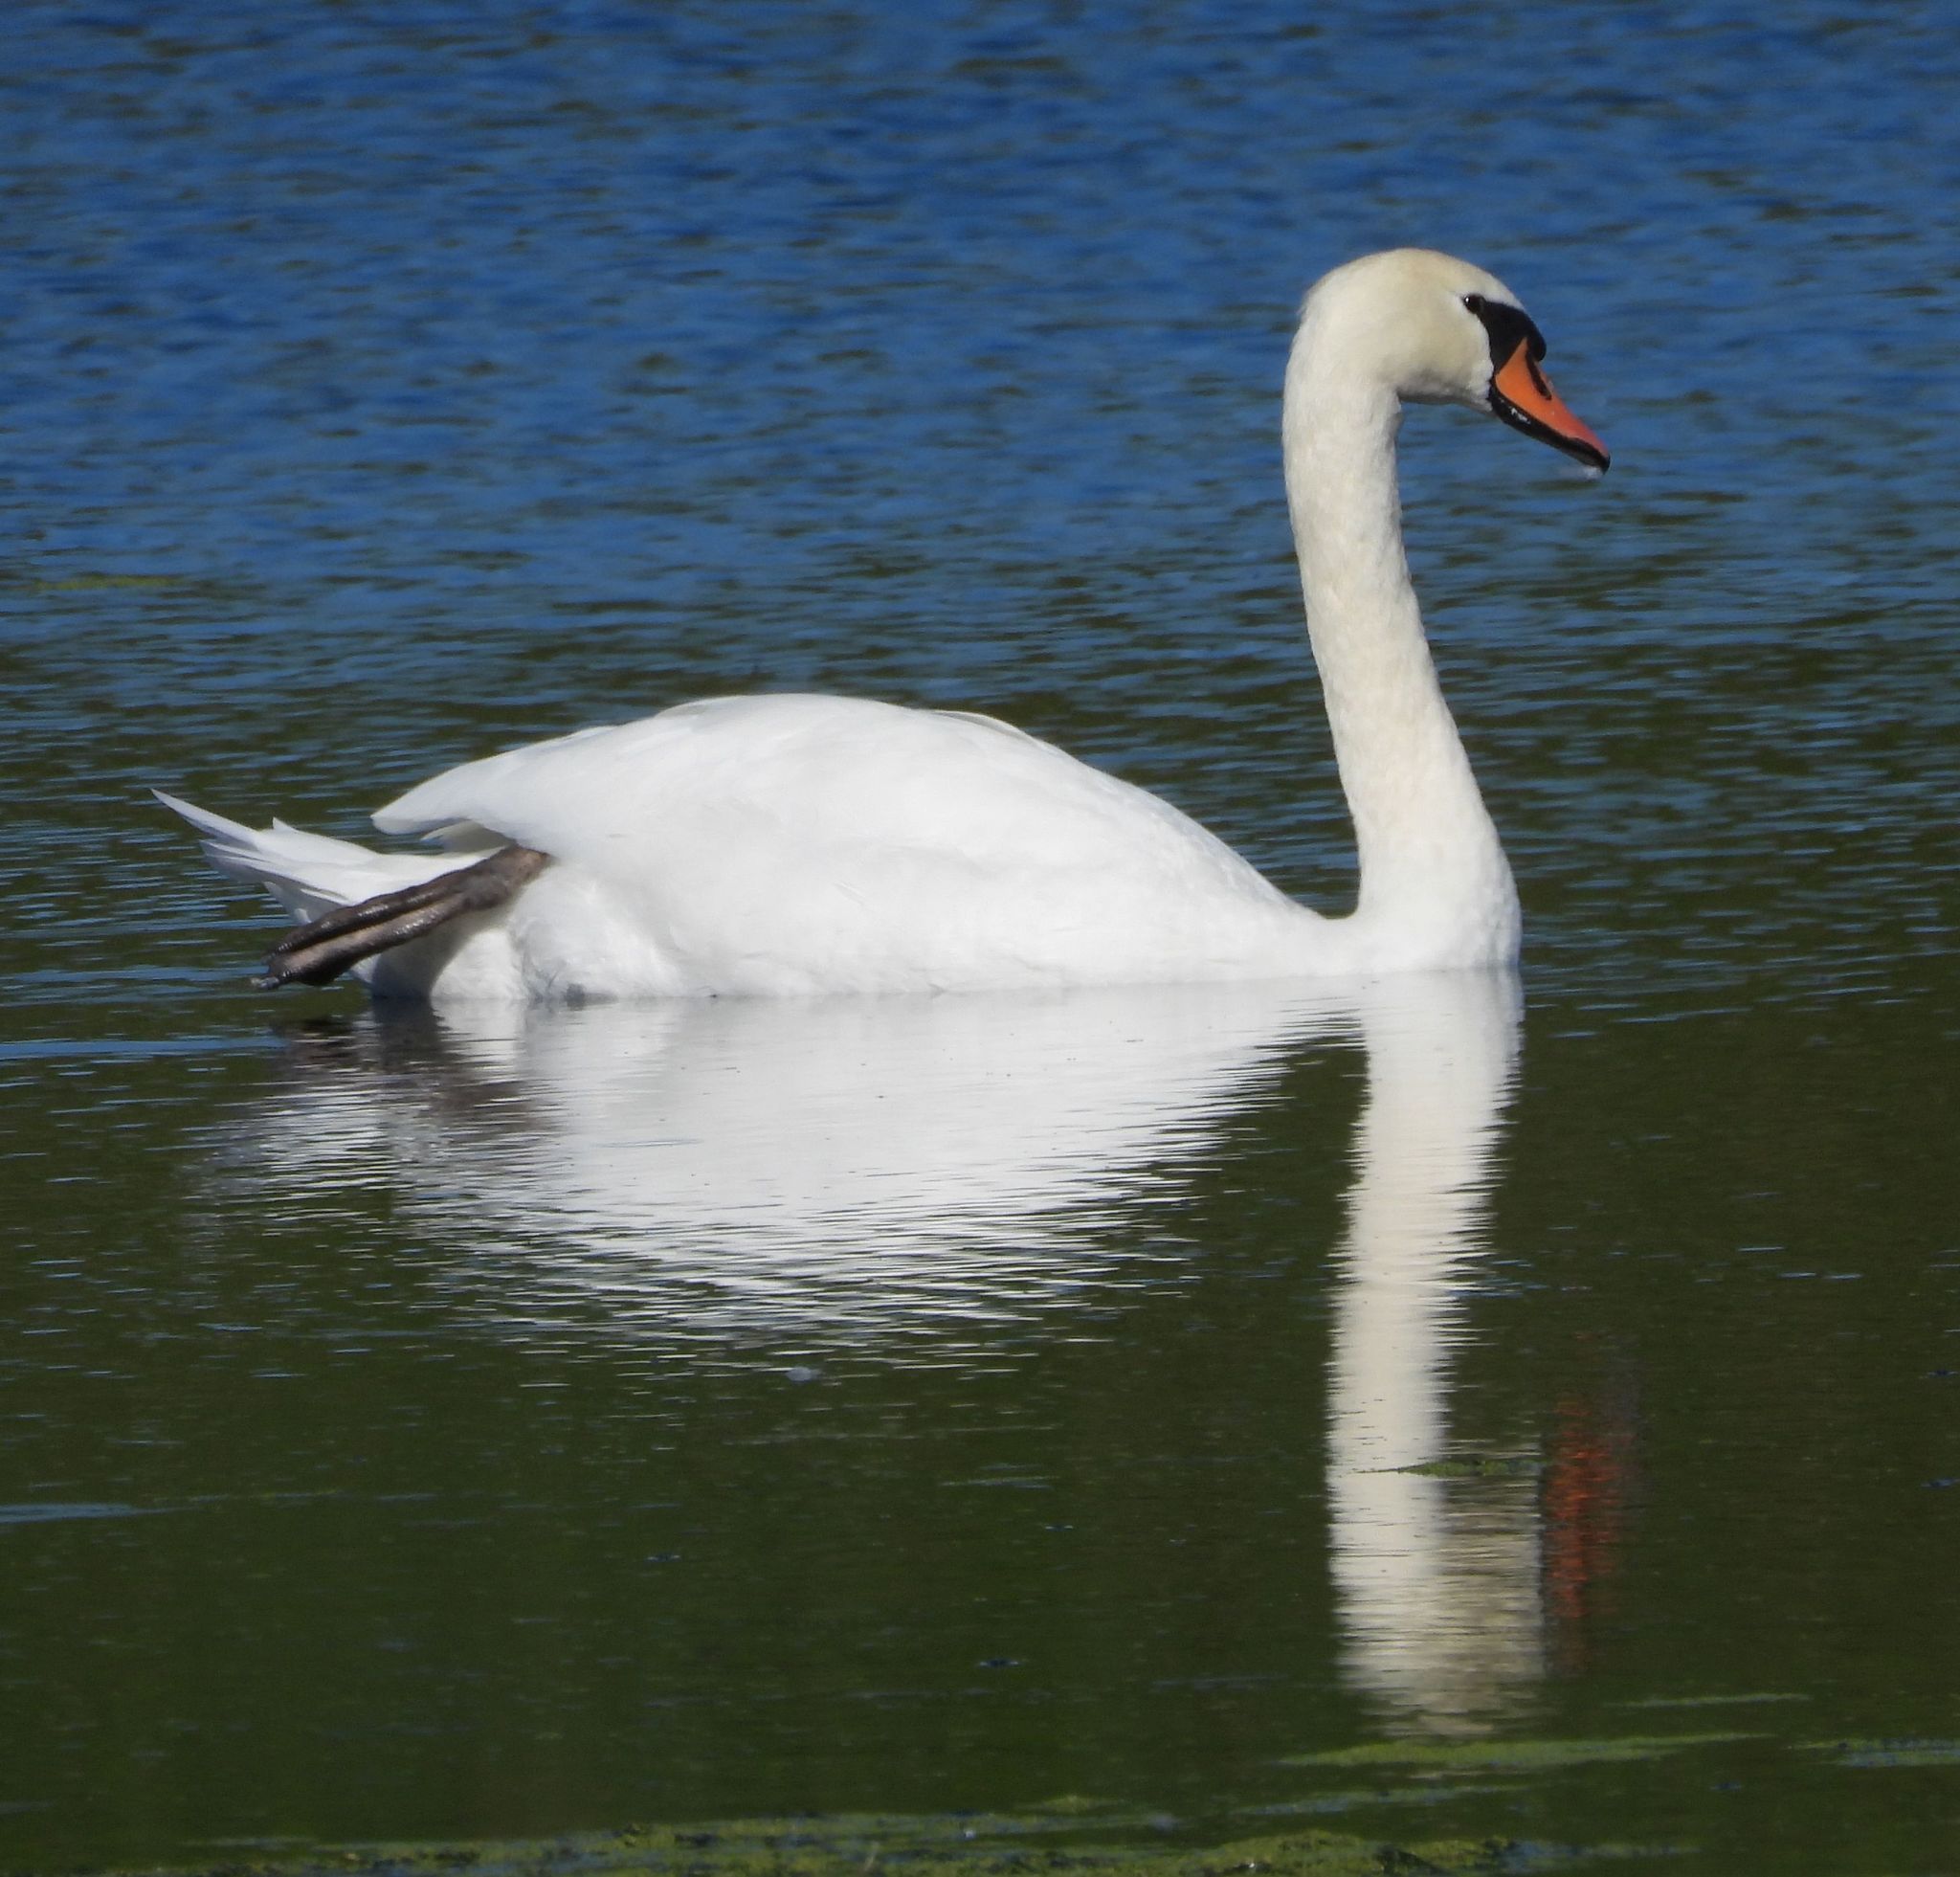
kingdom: Animalia
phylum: Chordata
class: Aves
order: Anseriformes
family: Anatidae
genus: Cygnus
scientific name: Cygnus olor
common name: Mute swan
